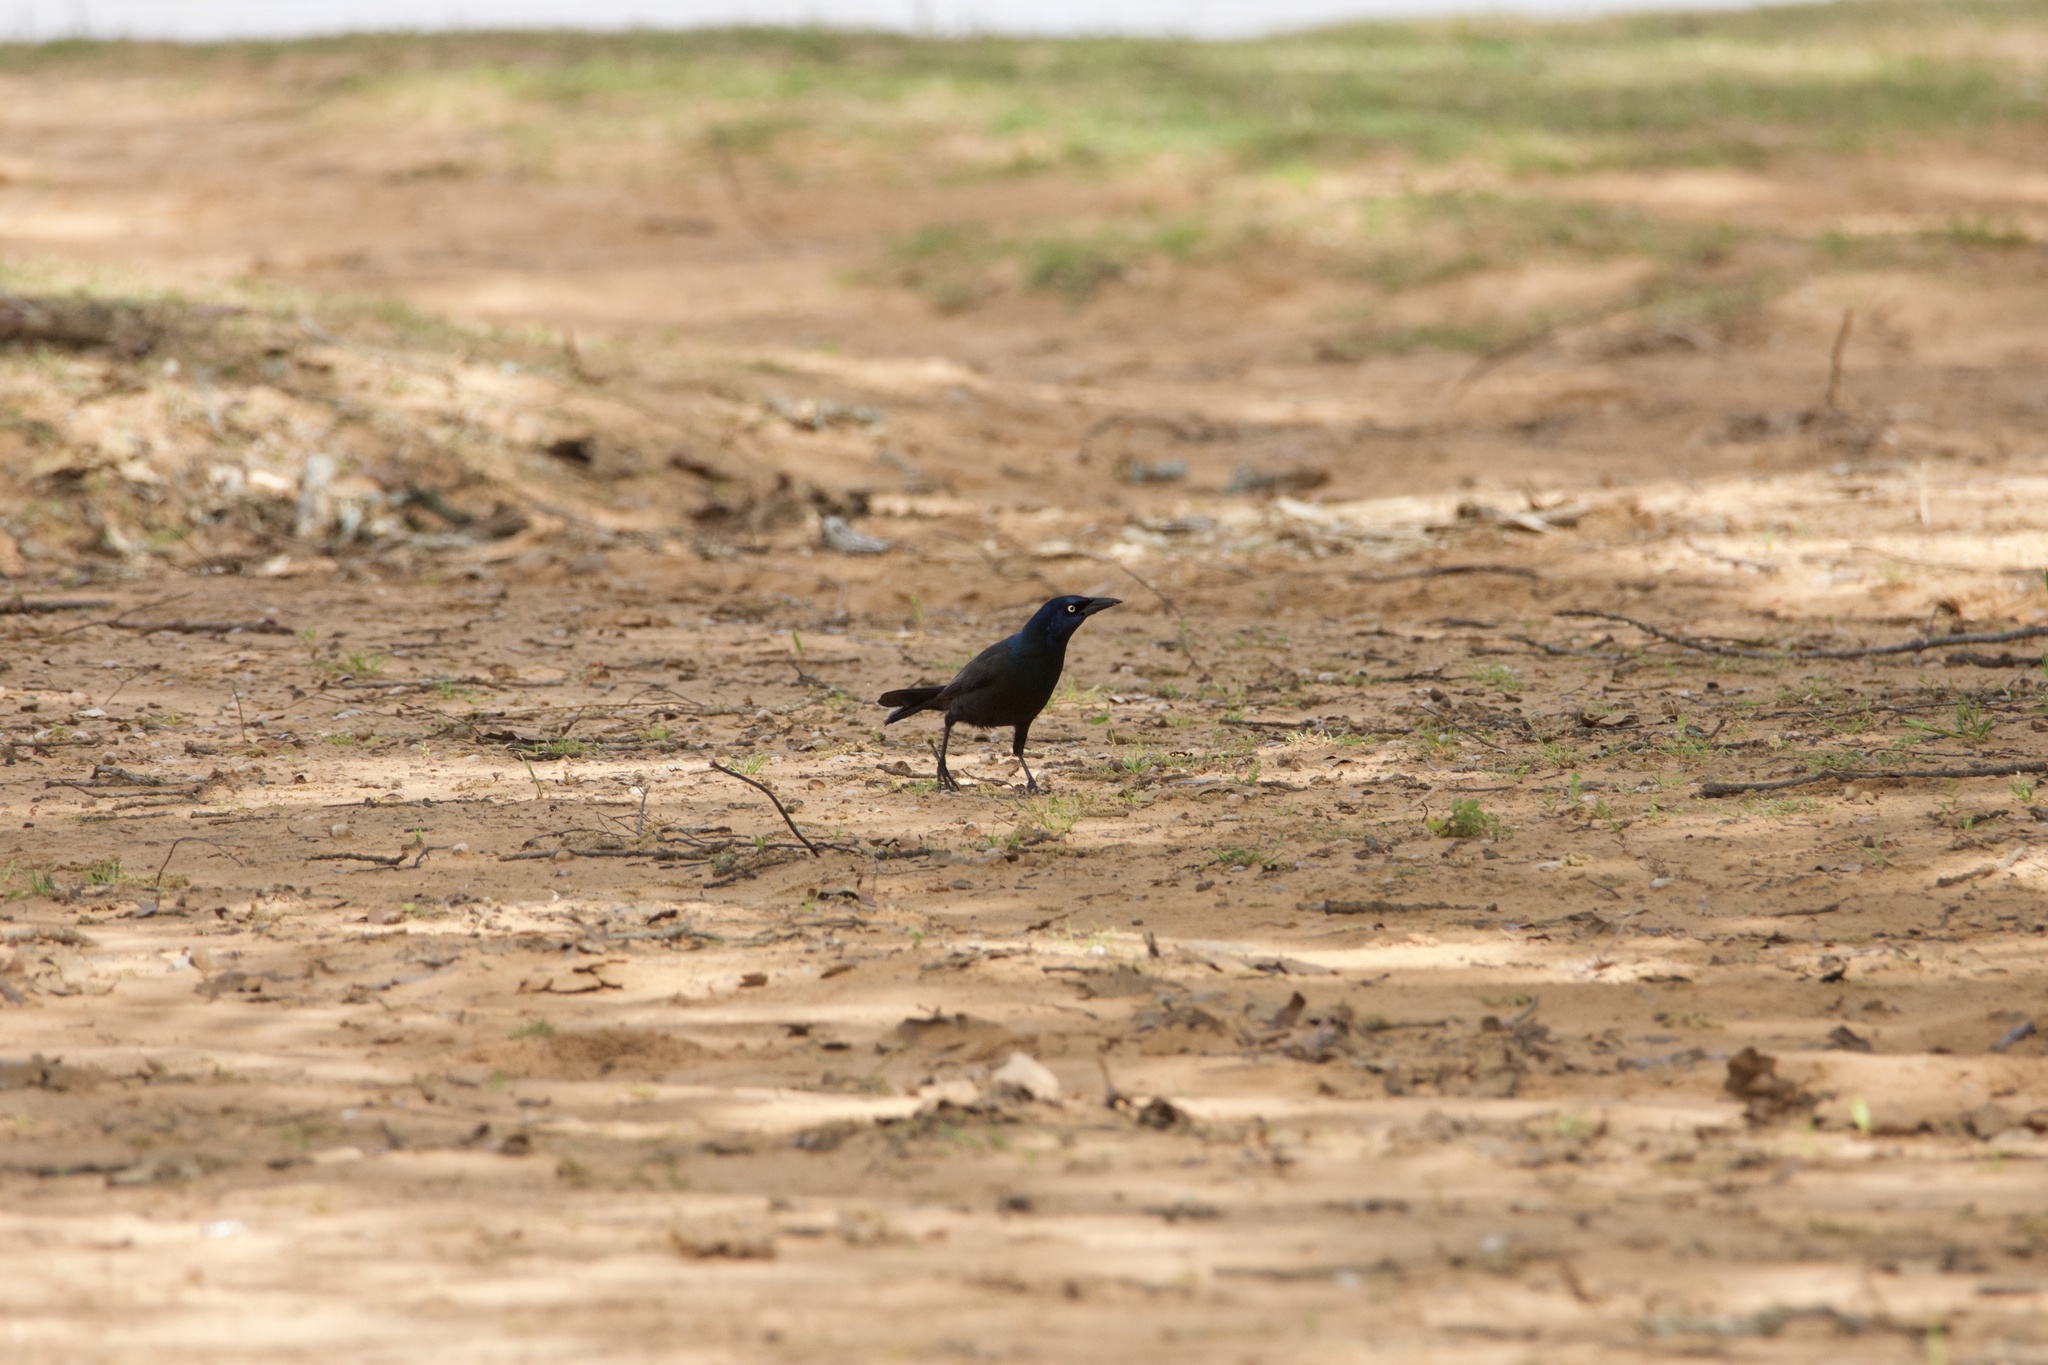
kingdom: Animalia
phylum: Chordata
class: Aves
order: Passeriformes
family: Icteridae
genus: Quiscalus
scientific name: Quiscalus quiscula
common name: Common grackle
